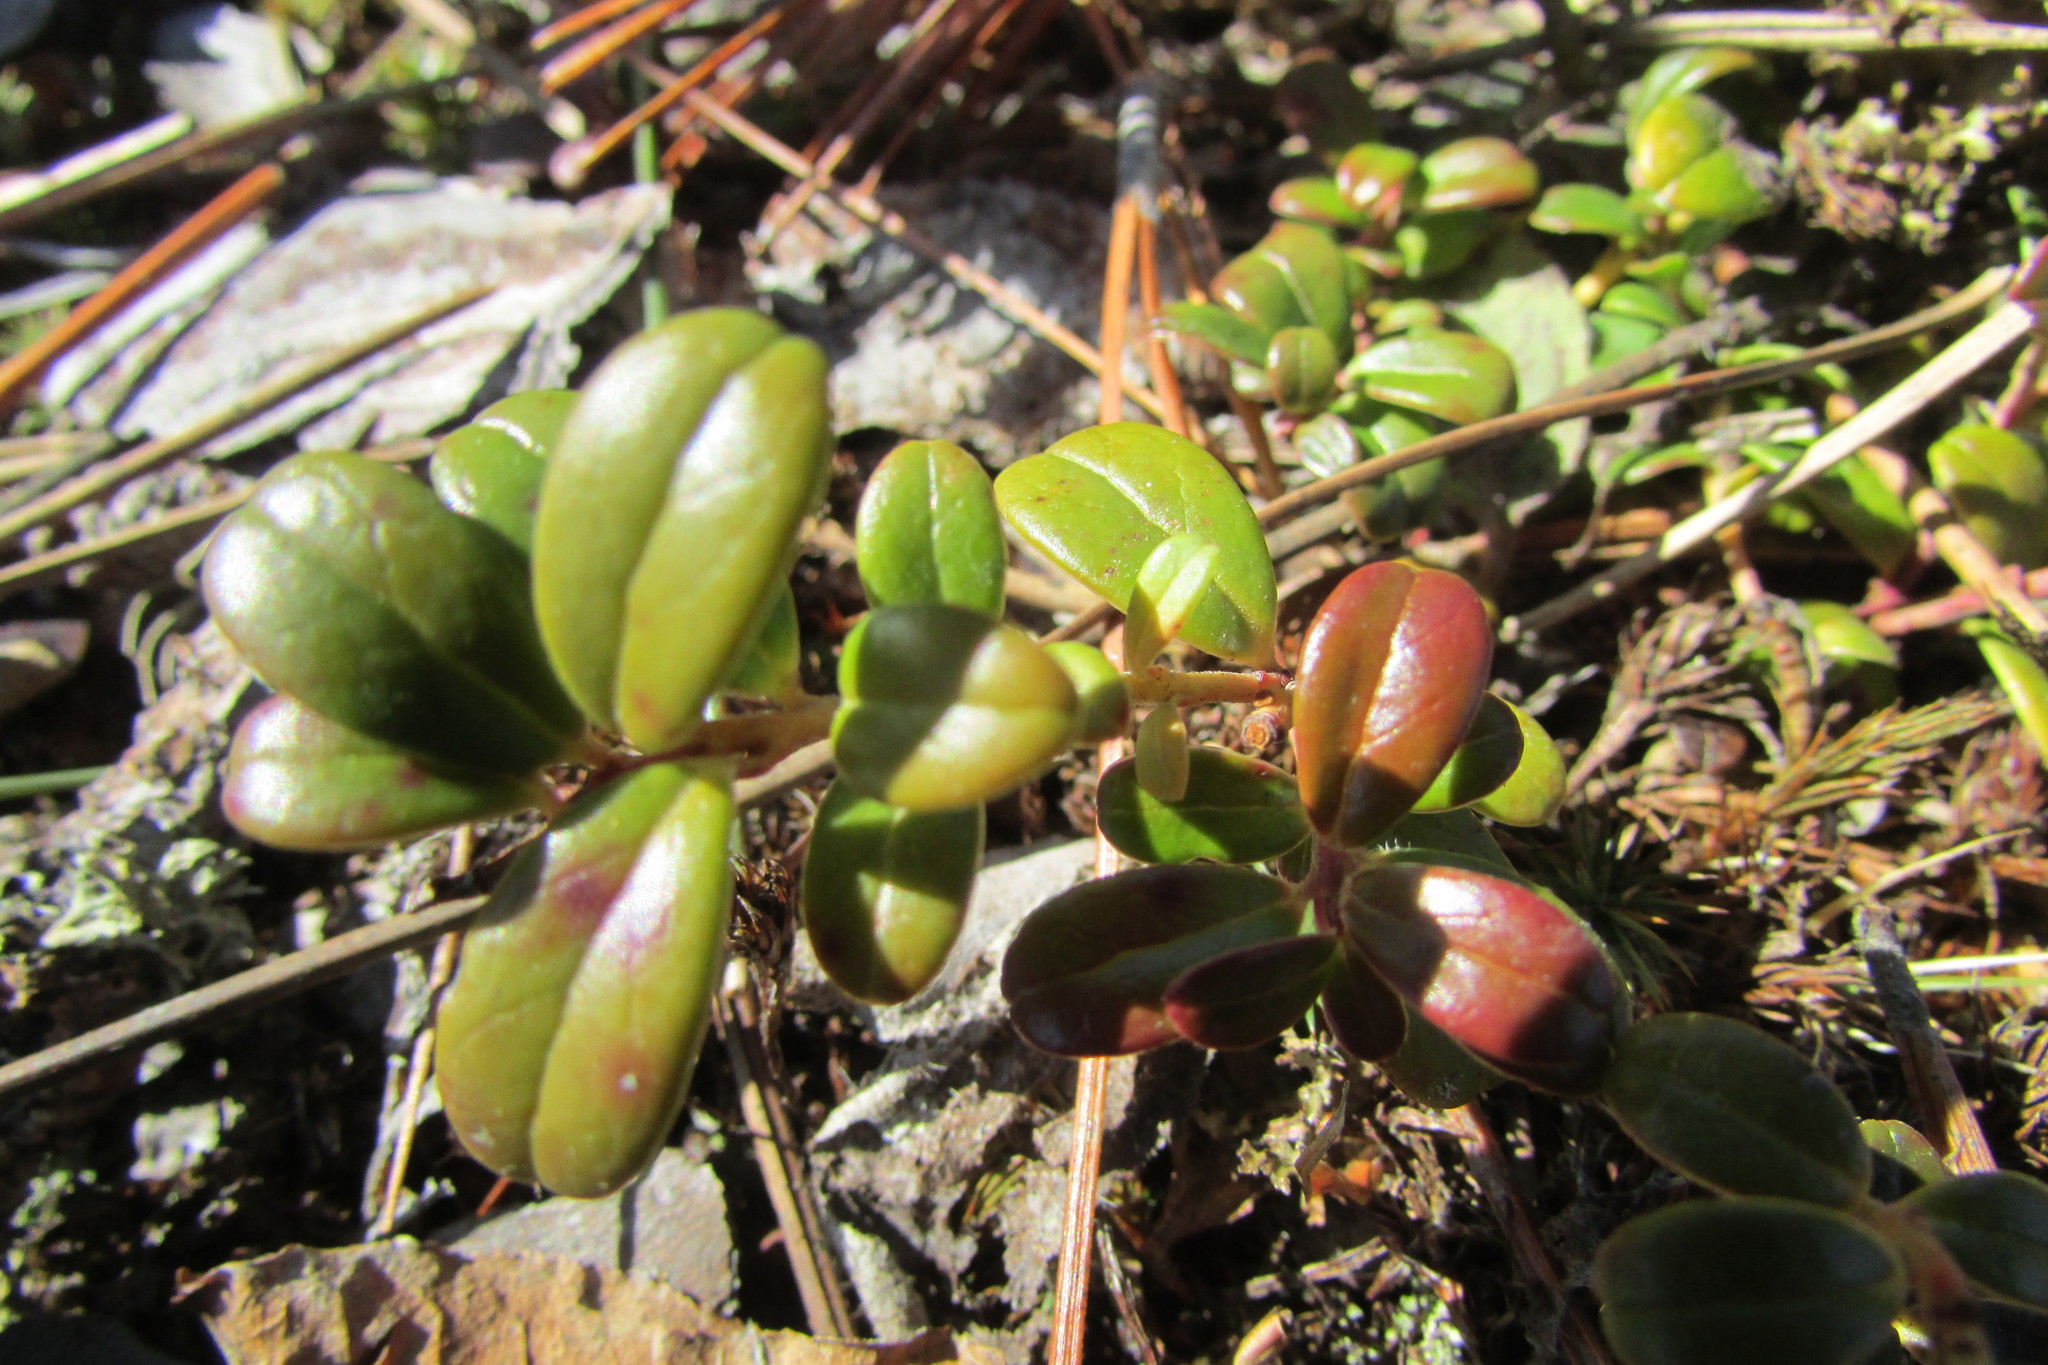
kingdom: Plantae
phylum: Tracheophyta
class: Magnoliopsida
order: Ericales
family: Ericaceae
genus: Vaccinium
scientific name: Vaccinium vitis-idaea
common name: Cowberry
